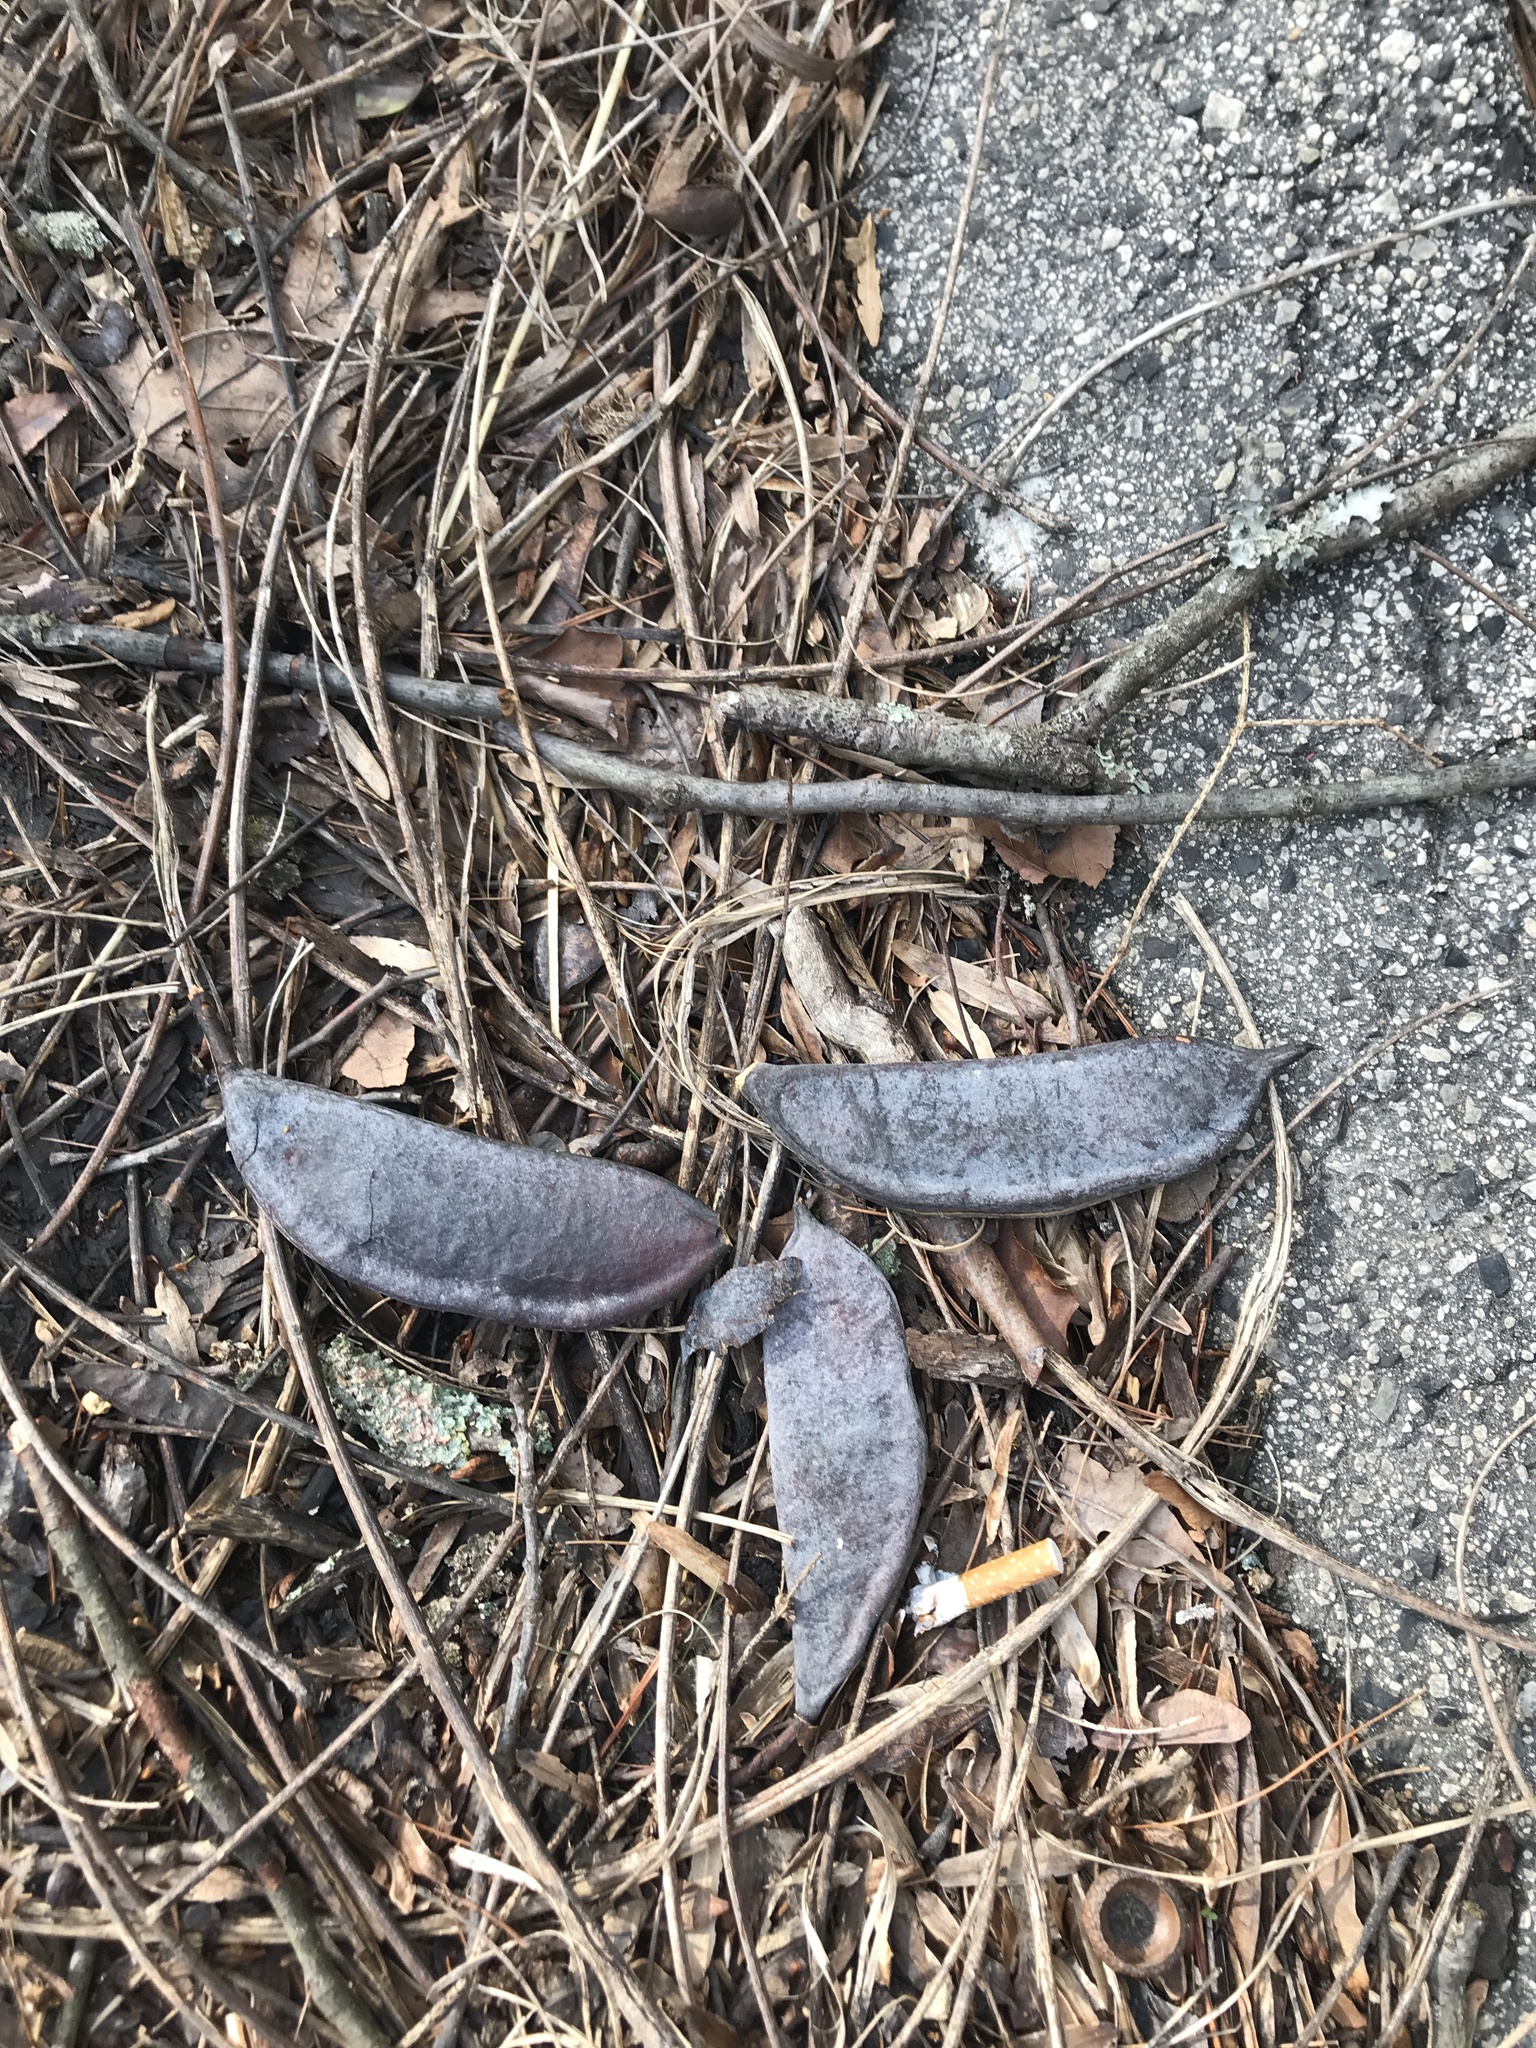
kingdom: Plantae
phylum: Tracheophyta
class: Magnoliopsida
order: Fabales
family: Fabaceae
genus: Gymnocladus
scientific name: Gymnocladus dioicus
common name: Kentucky coffee-tree
